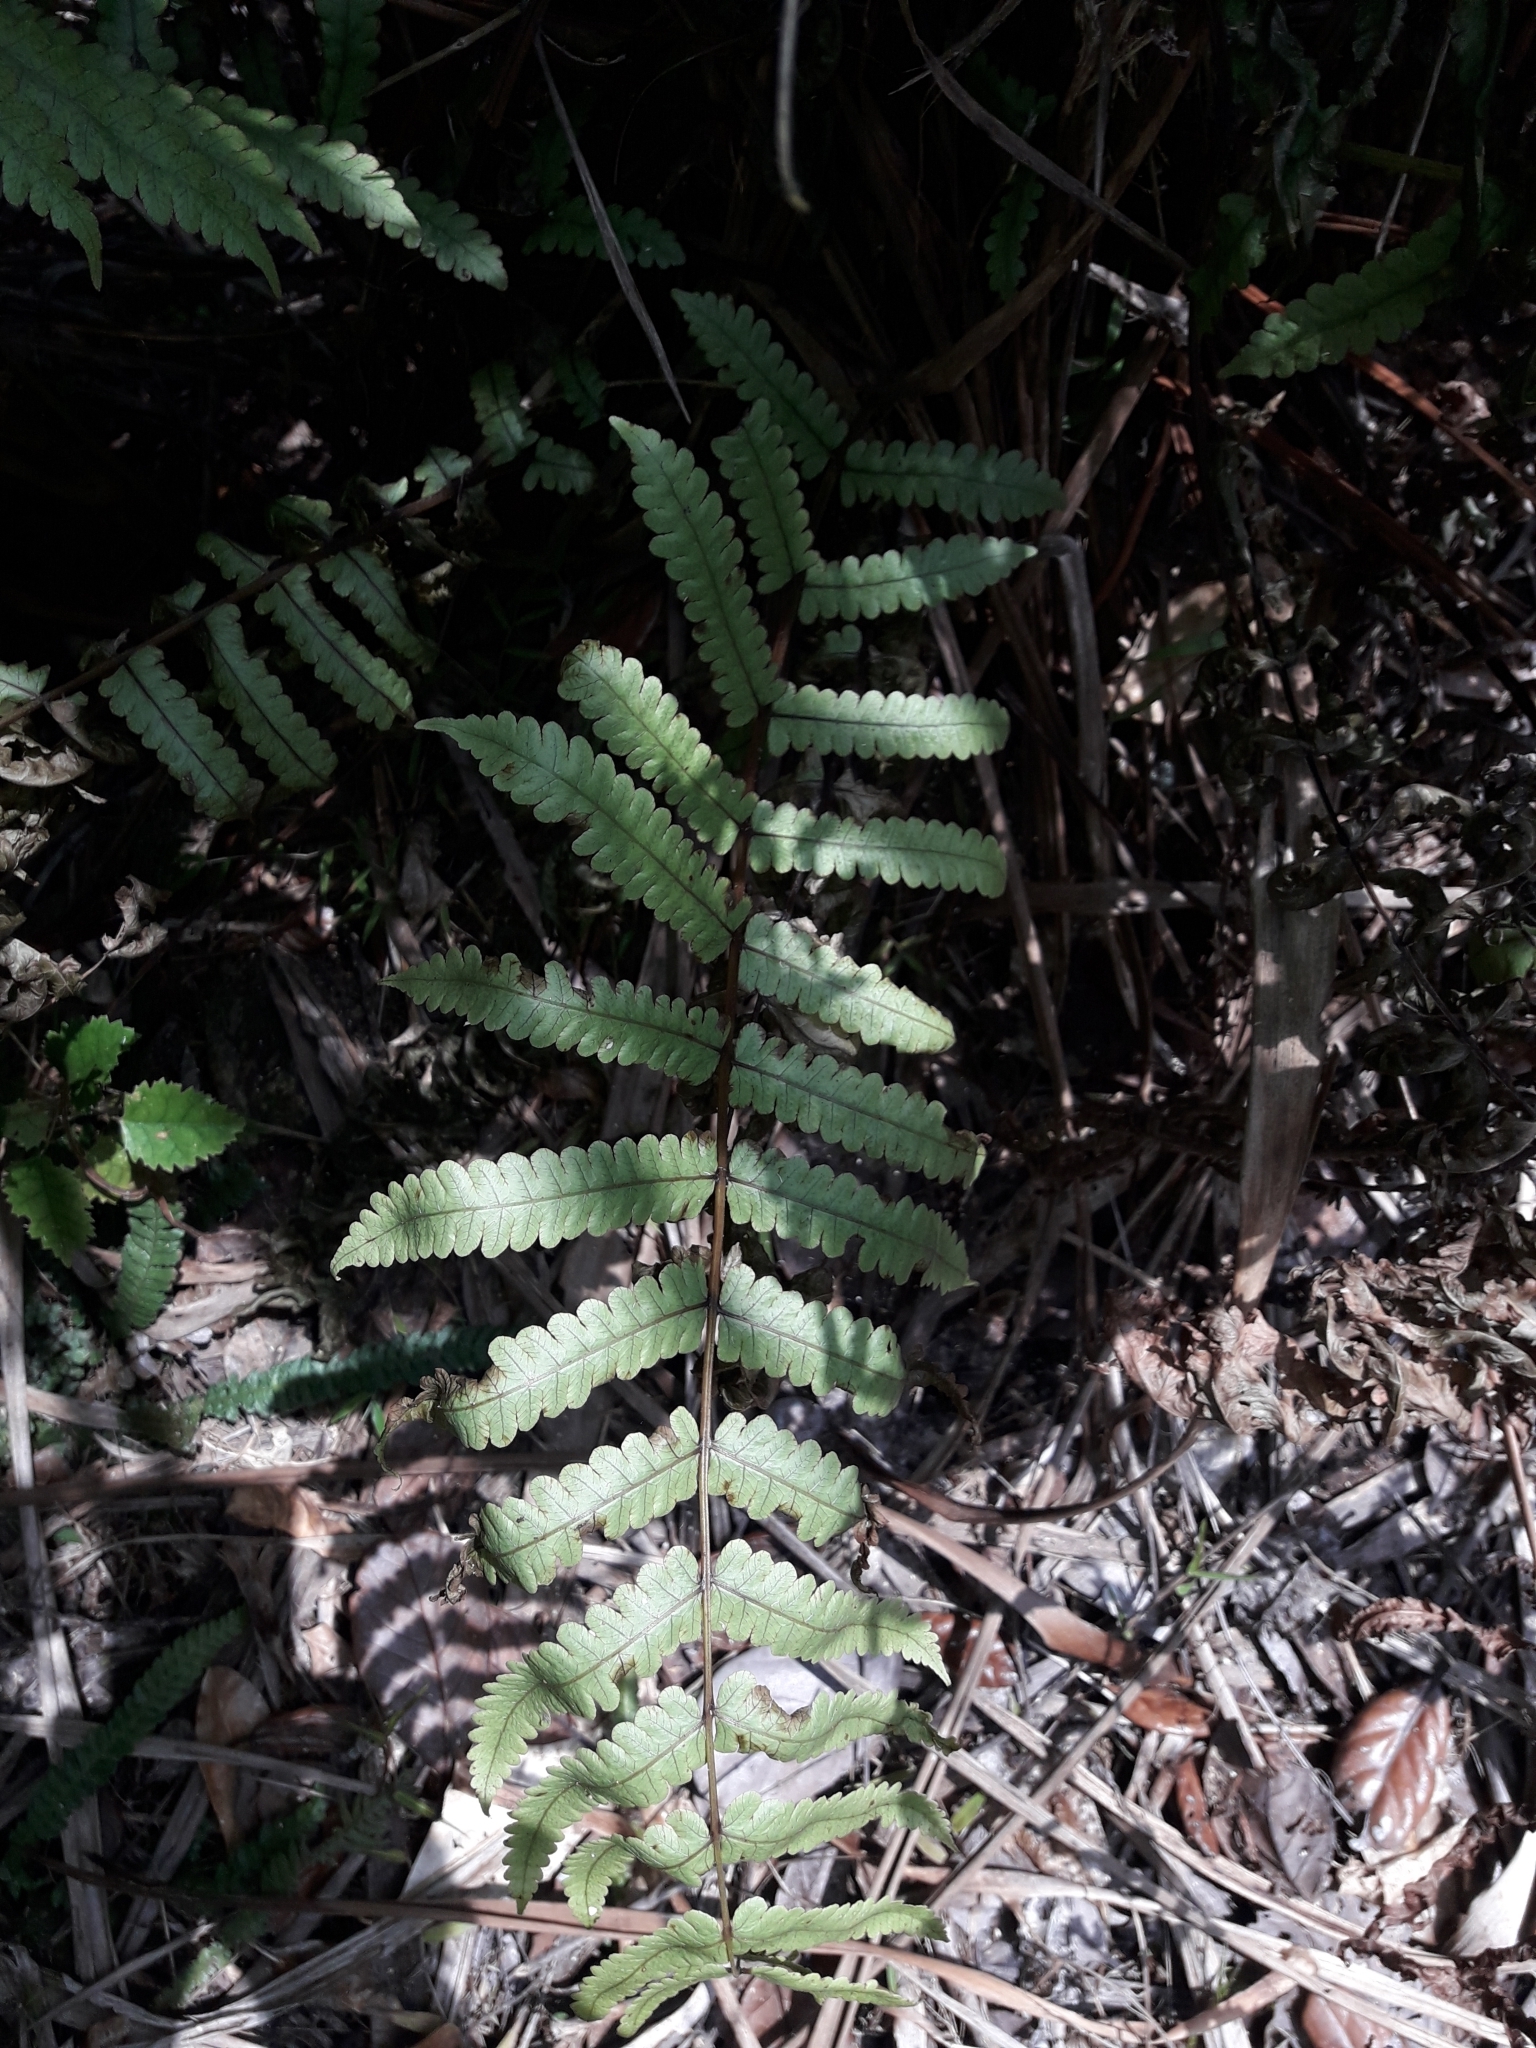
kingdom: Plantae
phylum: Tracheophyta
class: Polypodiopsida
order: Polypodiales
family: Thelypteridaceae
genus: Pakau
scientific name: Pakau pennigera
